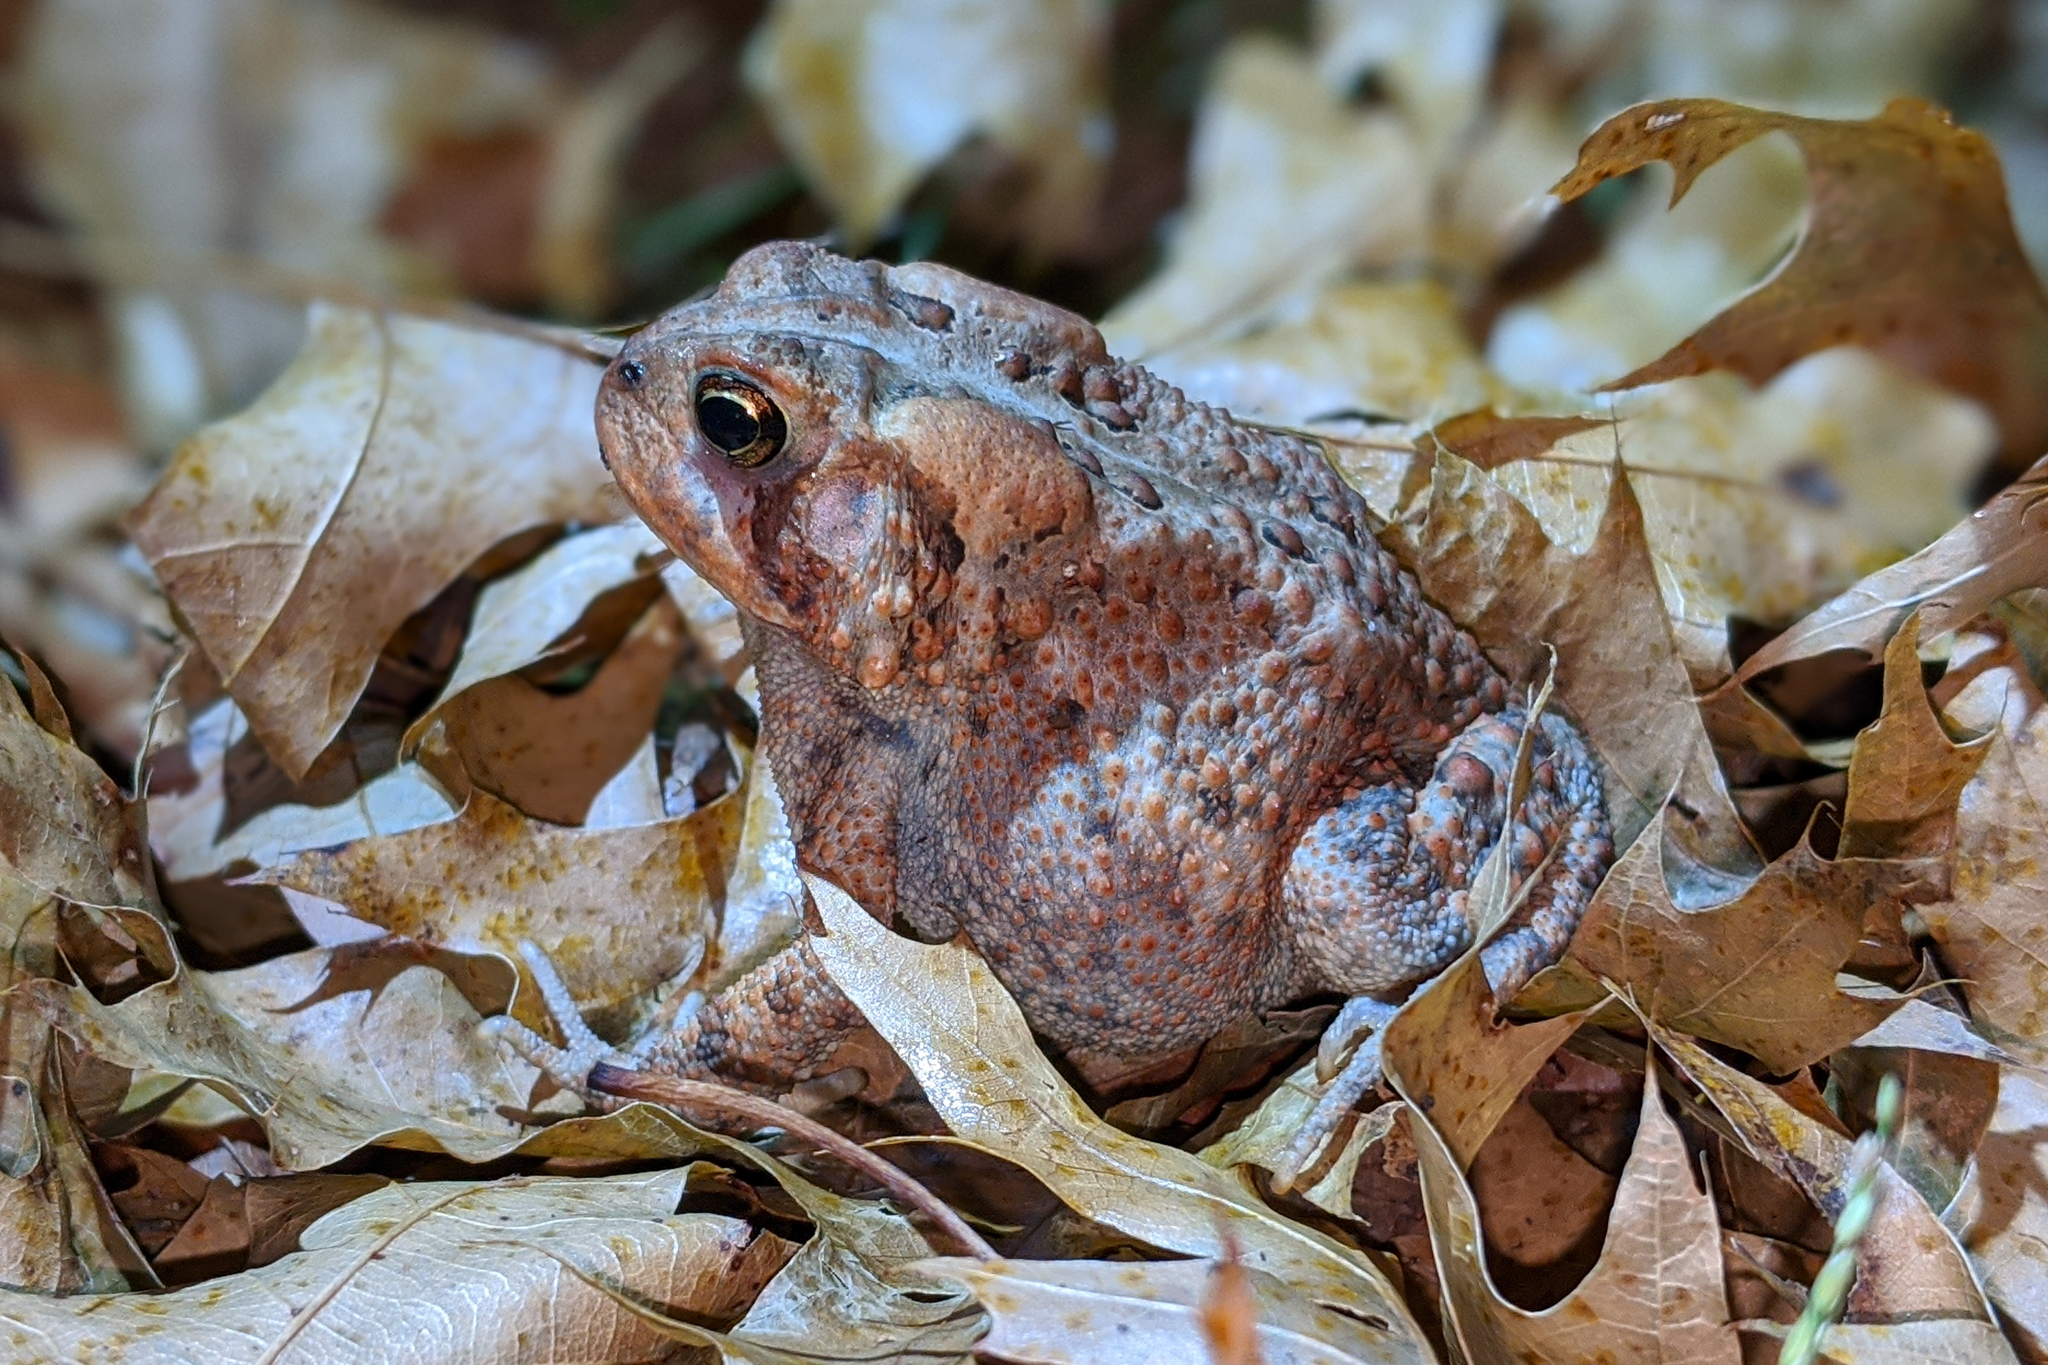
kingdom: Animalia
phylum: Chordata
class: Amphibia
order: Anura
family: Bufonidae
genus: Anaxyrus
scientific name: Anaxyrus americanus
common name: American toad
